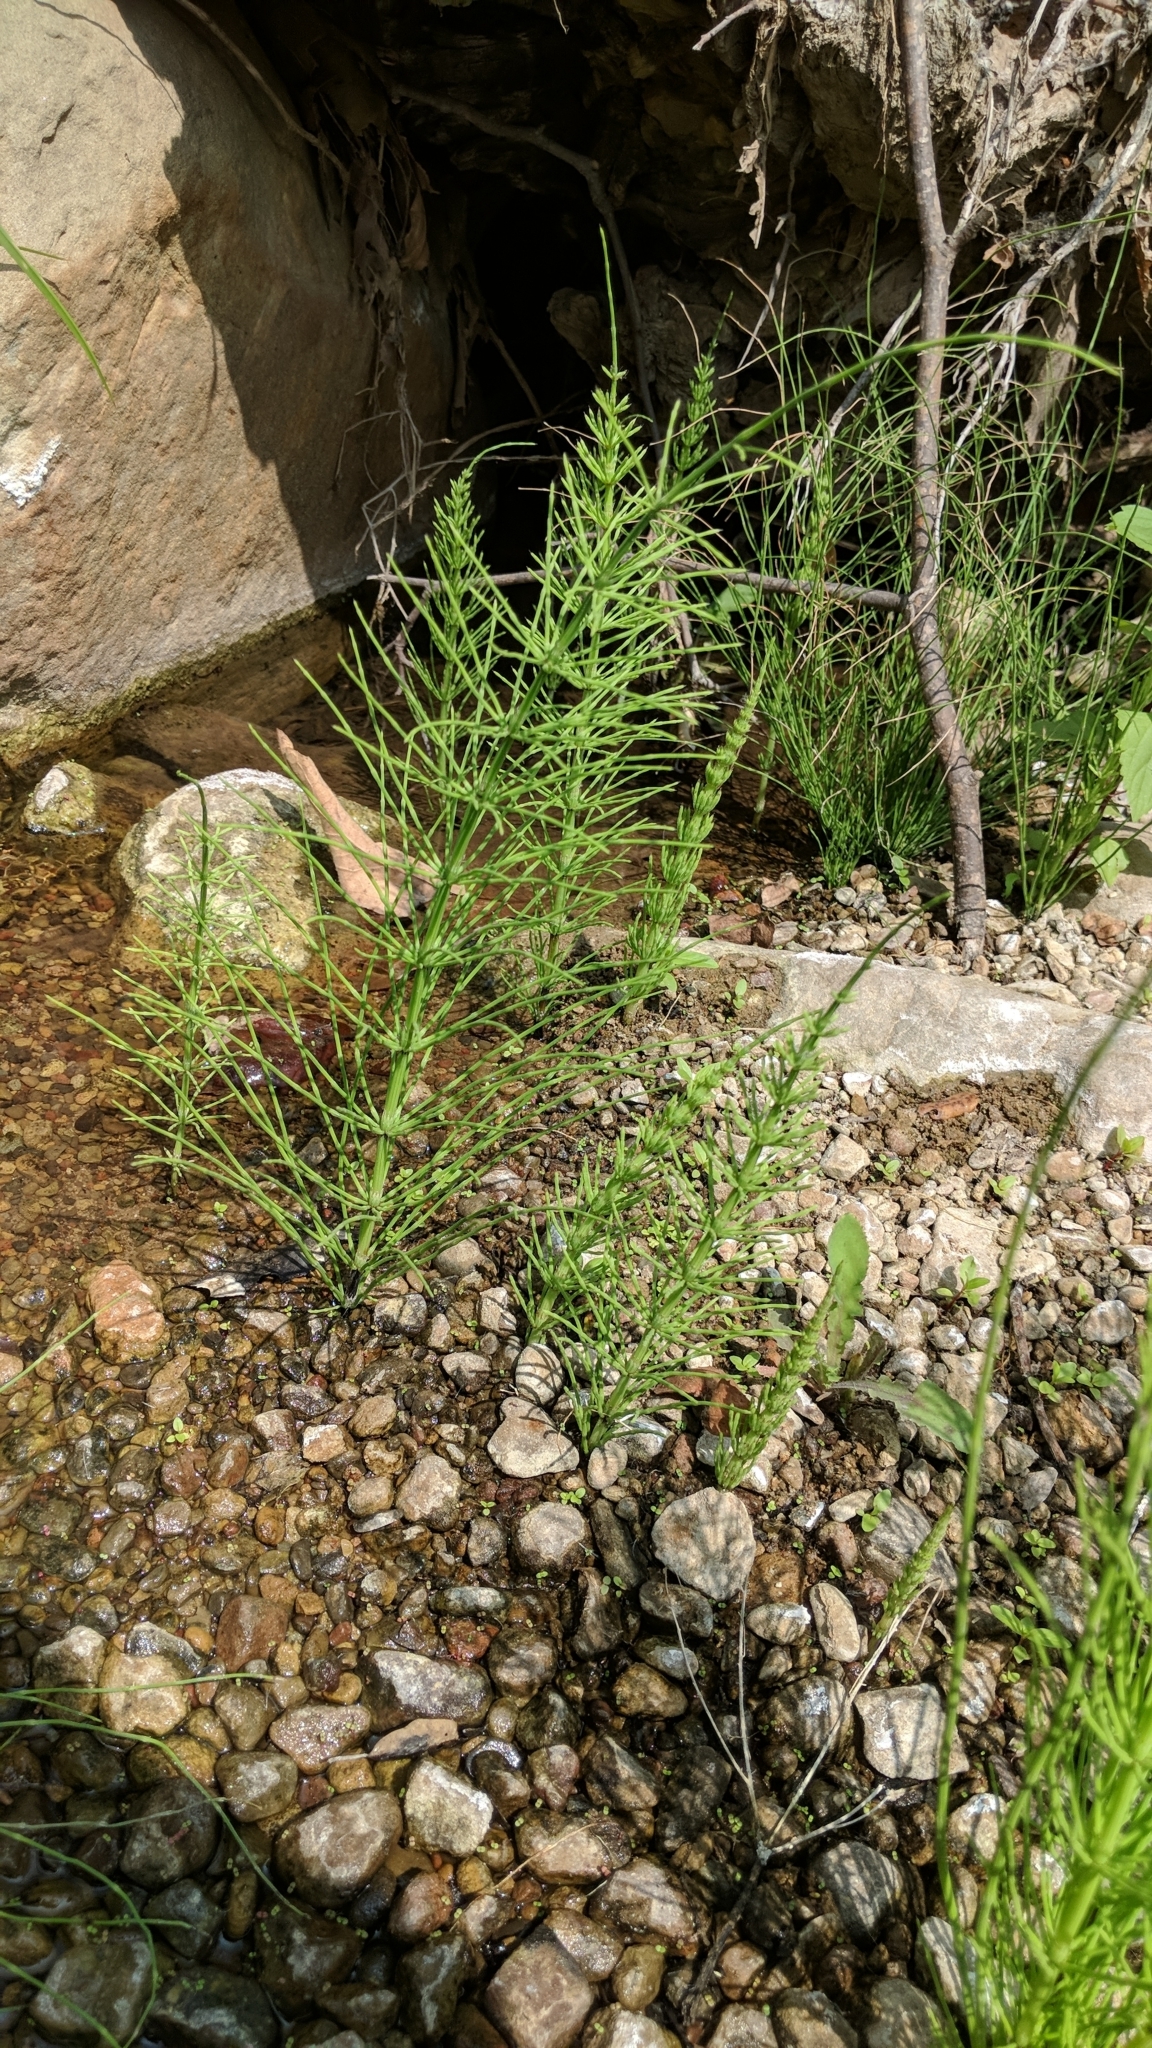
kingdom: Plantae
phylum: Tracheophyta
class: Polypodiopsida
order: Equisetales
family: Equisetaceae
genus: Equisetum
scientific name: Equisetum telmateia
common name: Great horsetail
